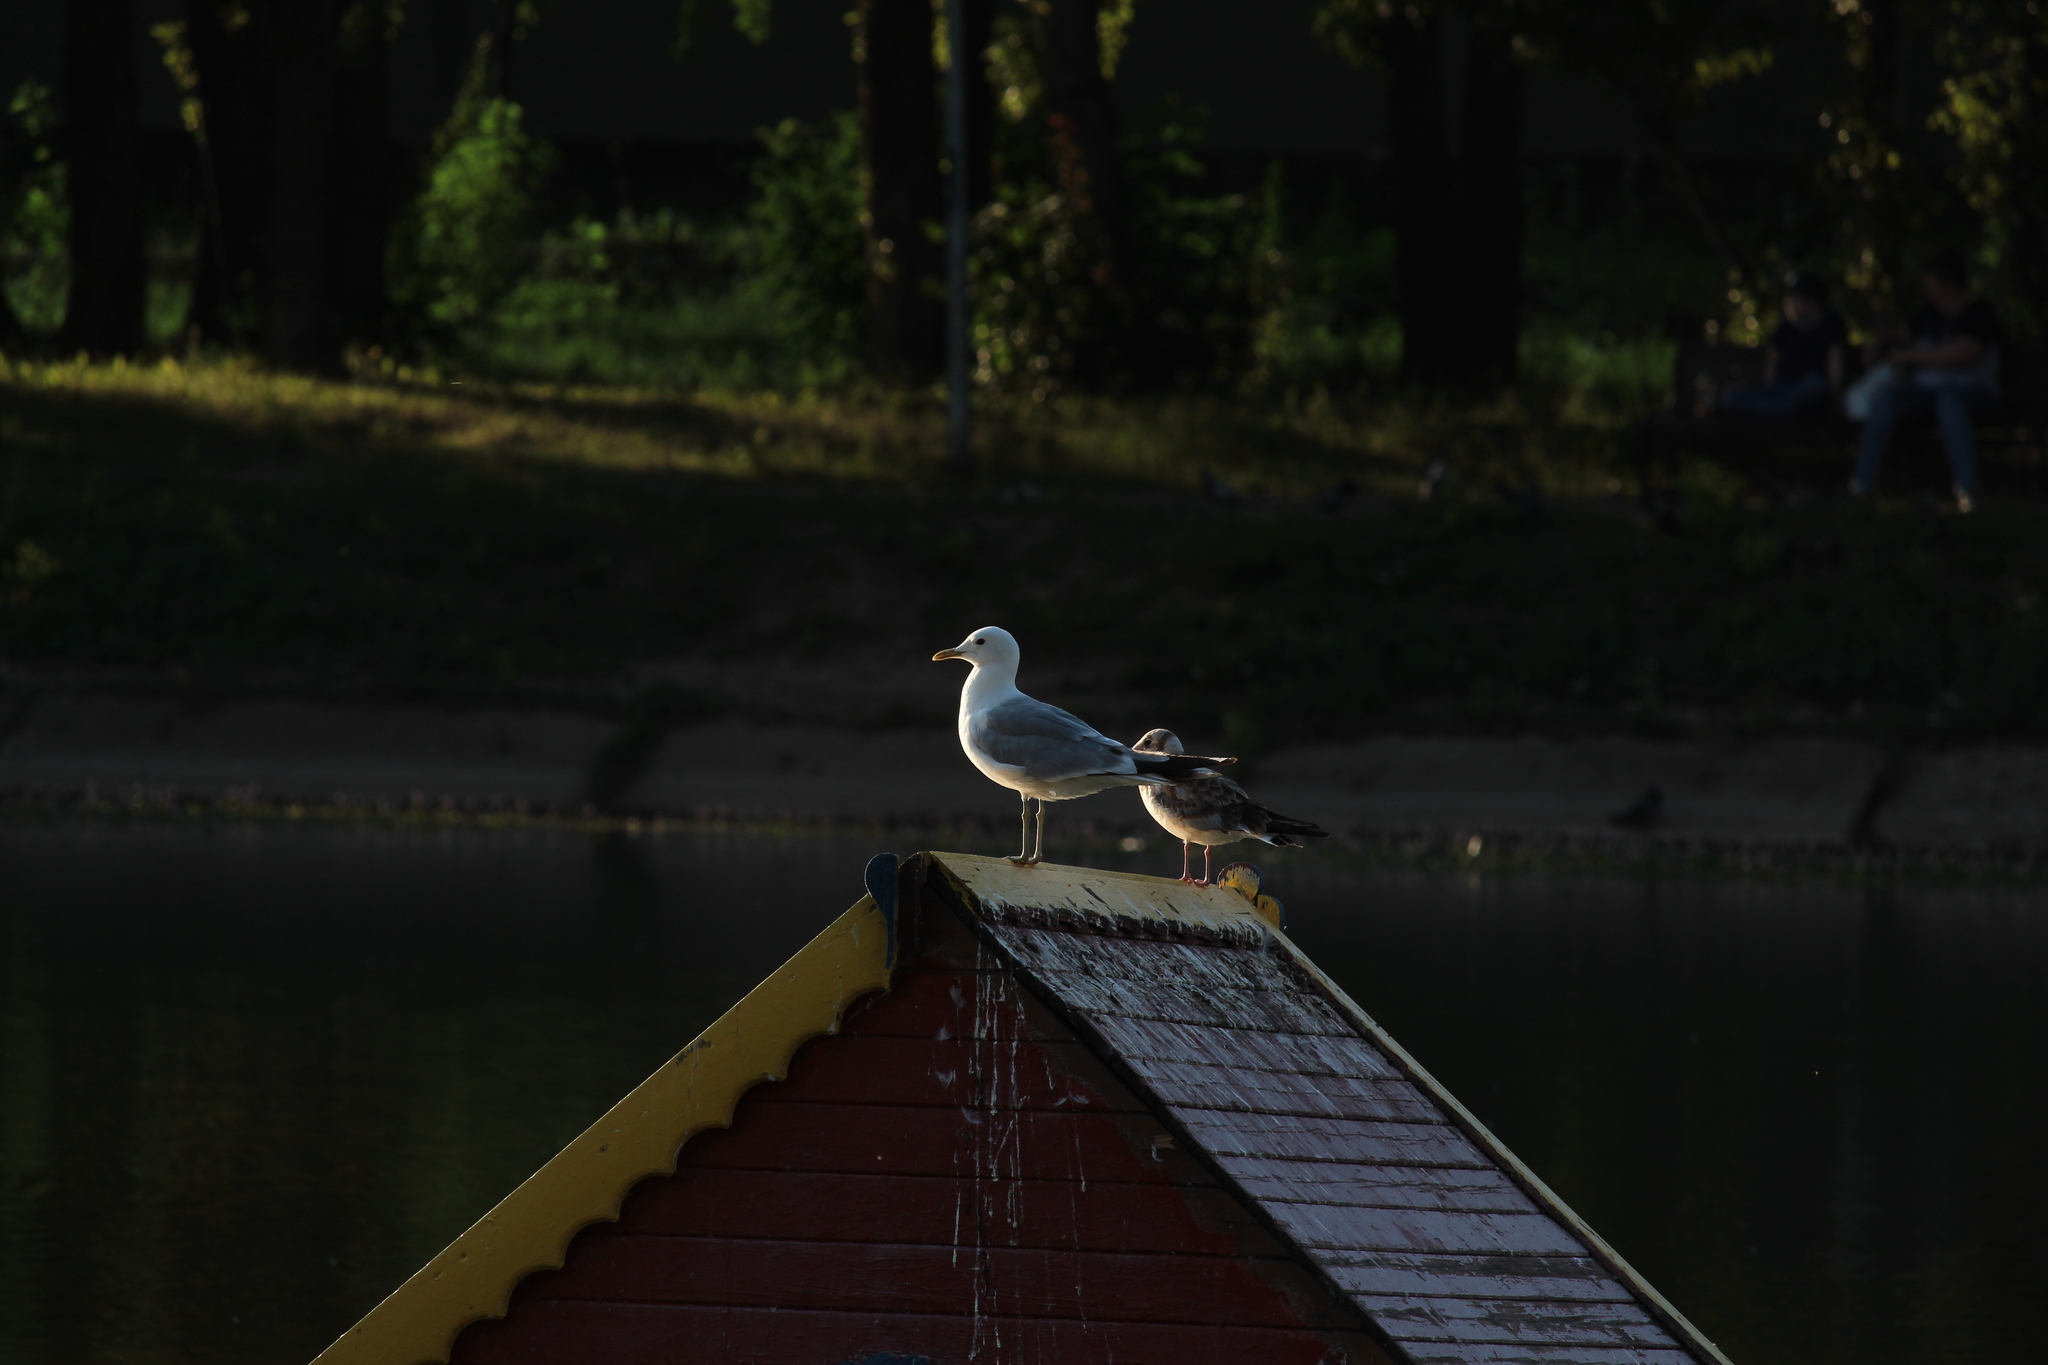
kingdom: Animalia
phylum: Chordata
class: Aves
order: Charadriiformes
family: Laridae
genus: Larus
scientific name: Larus canus
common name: Mew gull
